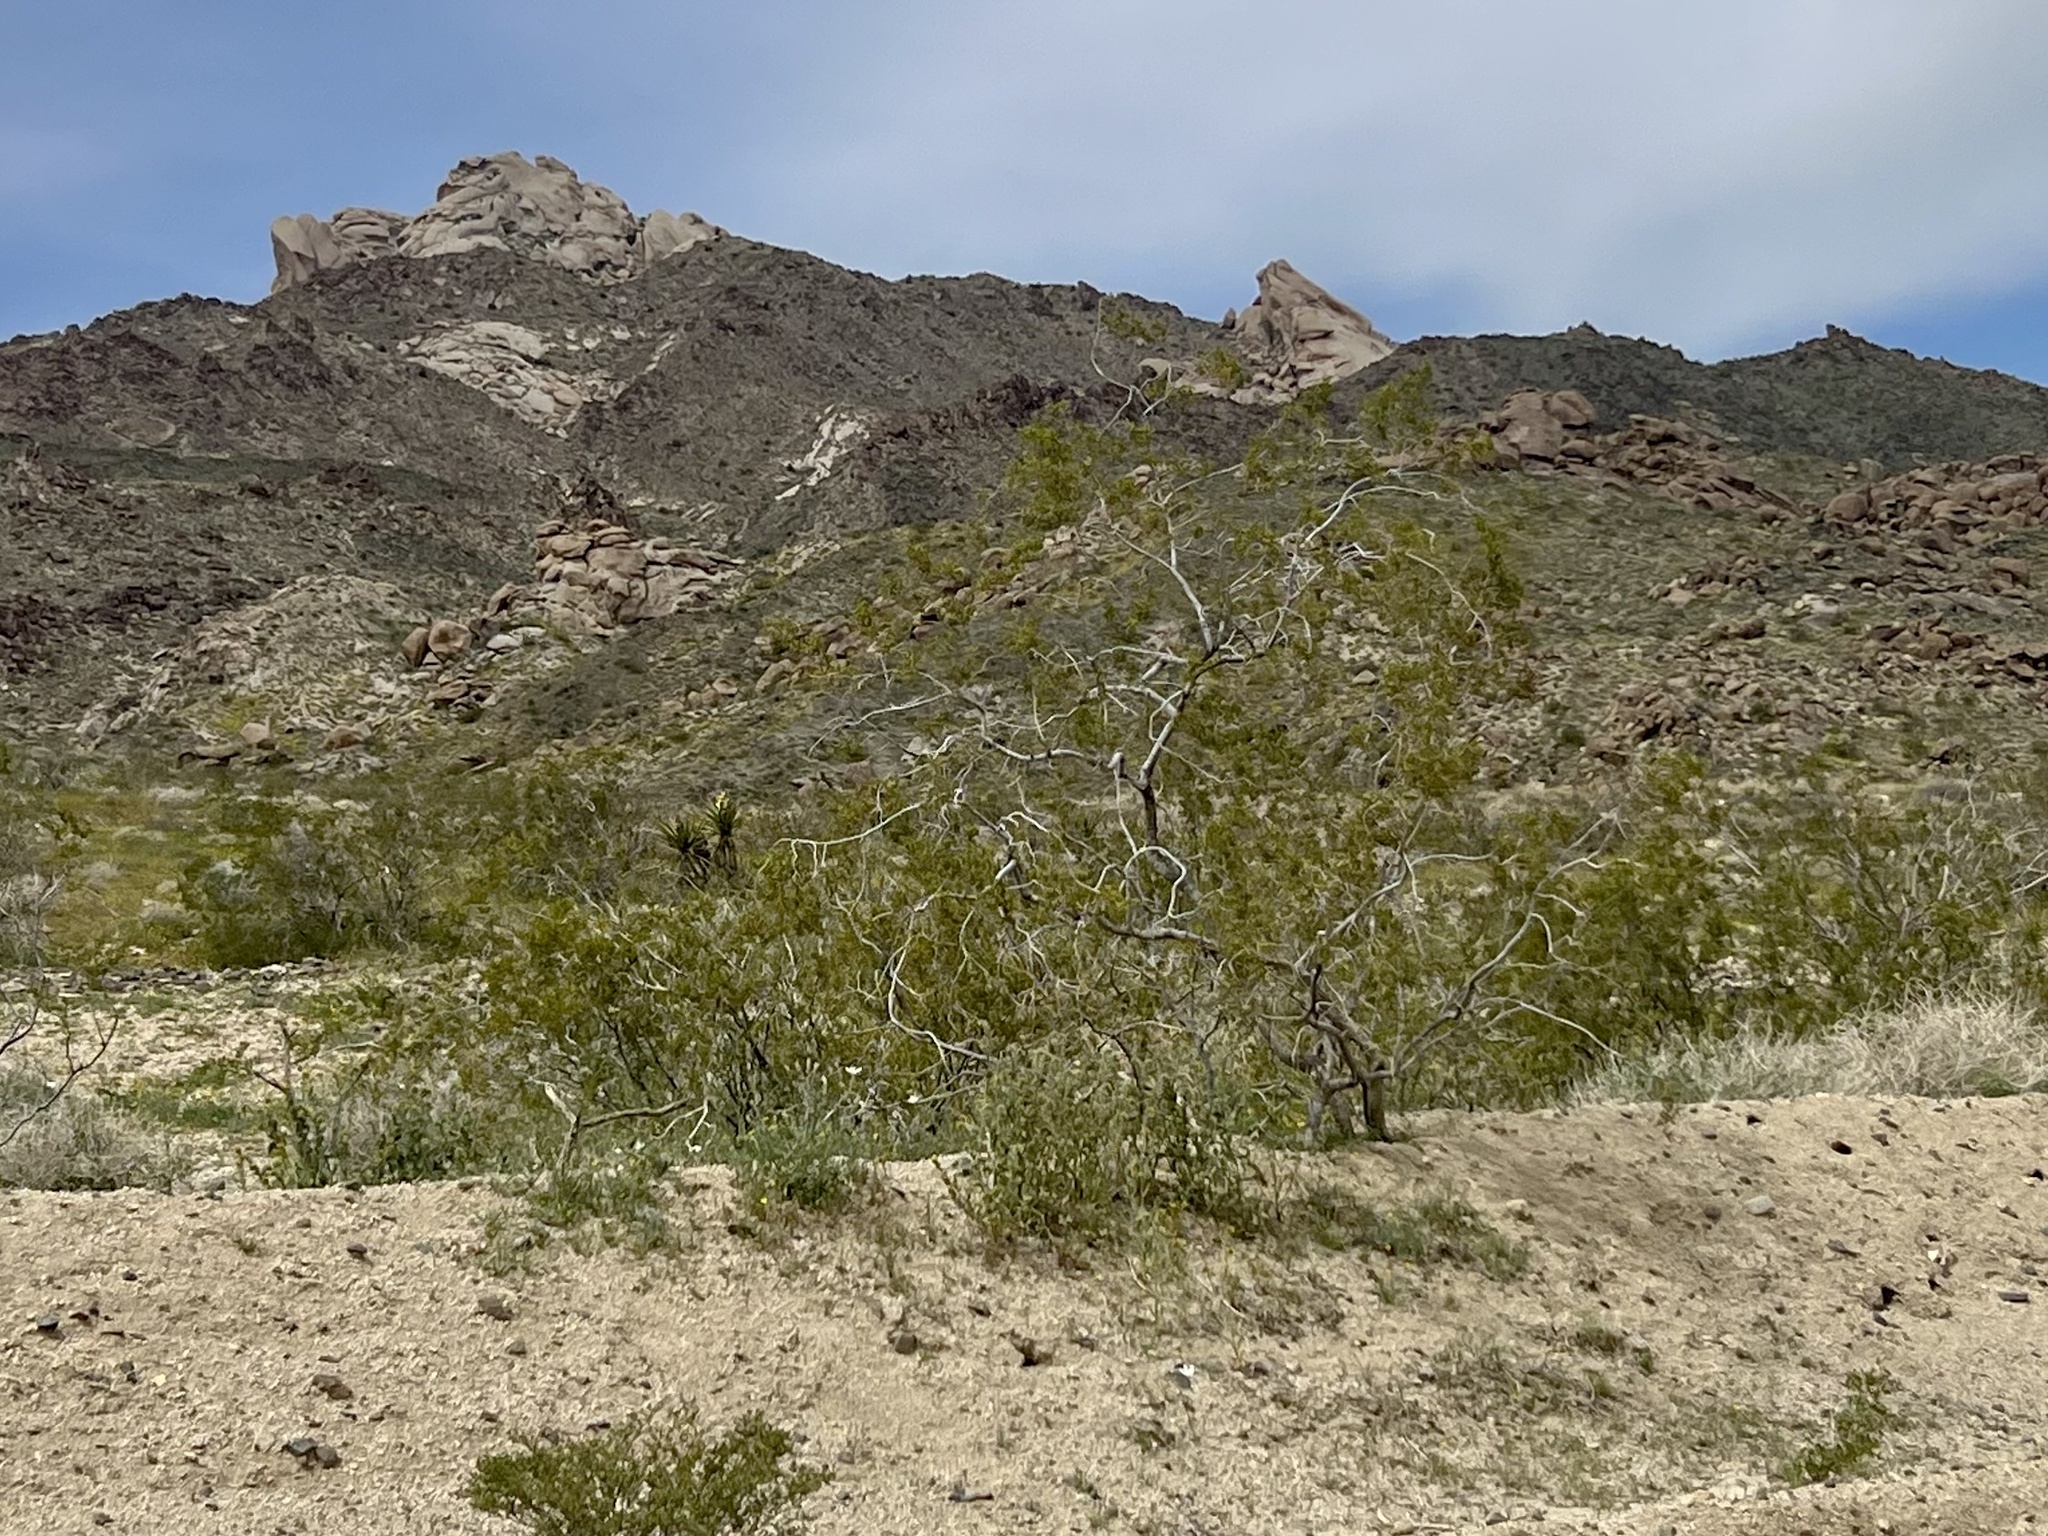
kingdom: Plantae
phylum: Tracheophyta
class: Magnoliopsida
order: Zygophyllales
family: Zygophyllaceae
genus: Larrea
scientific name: Larrea tridentata
